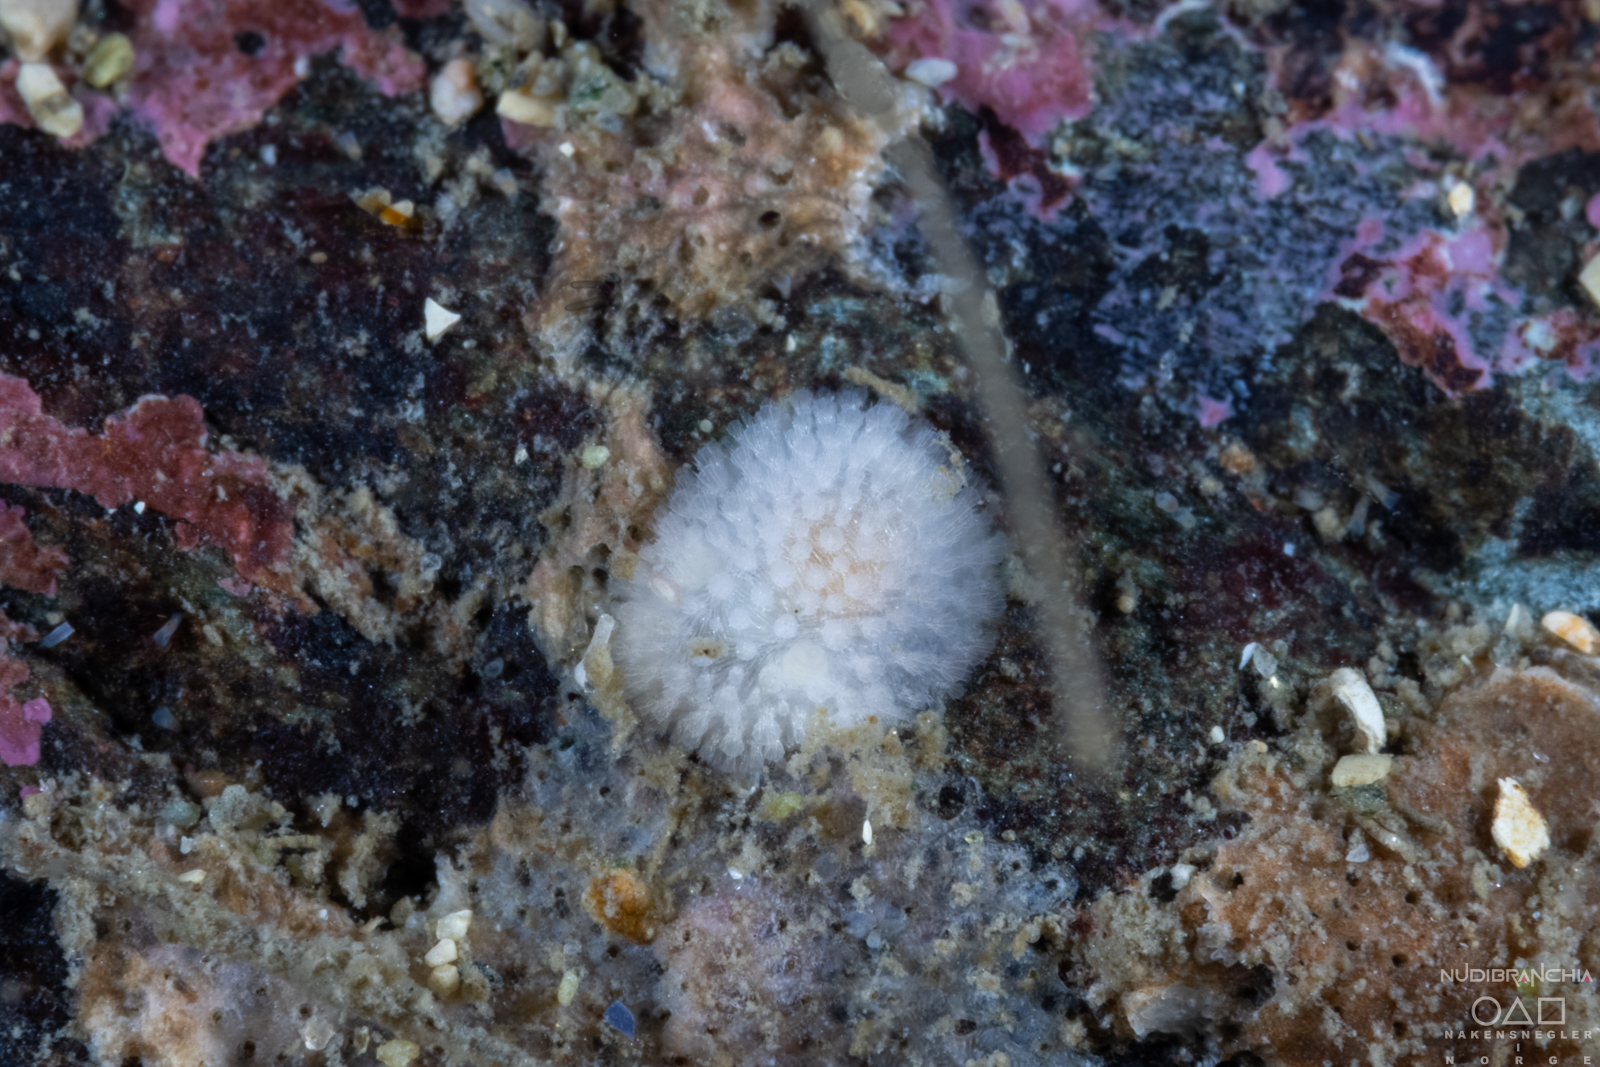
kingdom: Animalia
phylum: Mollusca
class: Gastropoda
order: Nudibranchia
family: Onchidorididae
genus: Onchidoris
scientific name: Onchidoris muricata
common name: Rough doris
